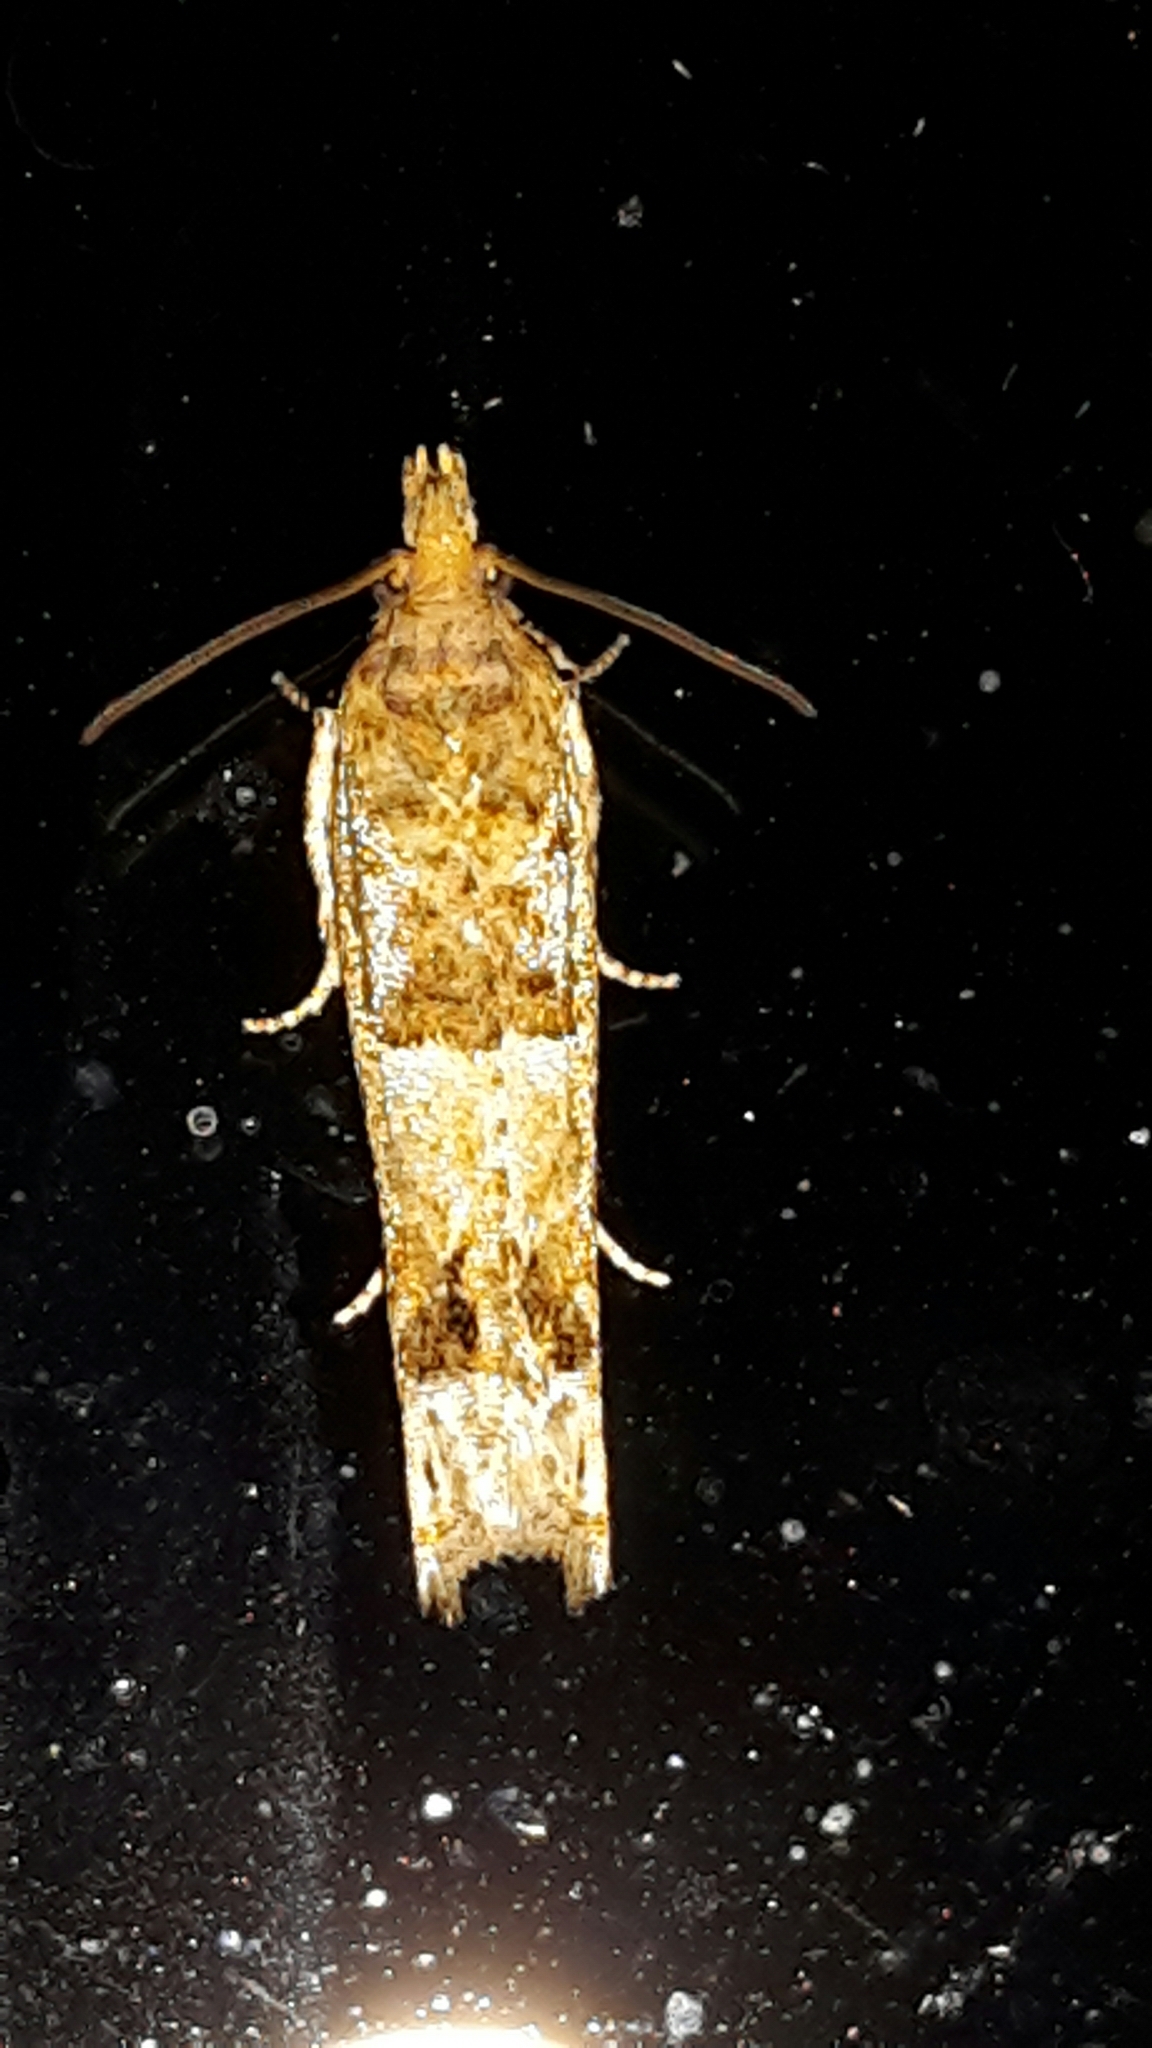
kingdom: Animalia
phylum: Arthropoda
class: Insecta
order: Lepidoptera
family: Tortricidae
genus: Crocidosema
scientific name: Crocidosema plebejana
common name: Southern bell
